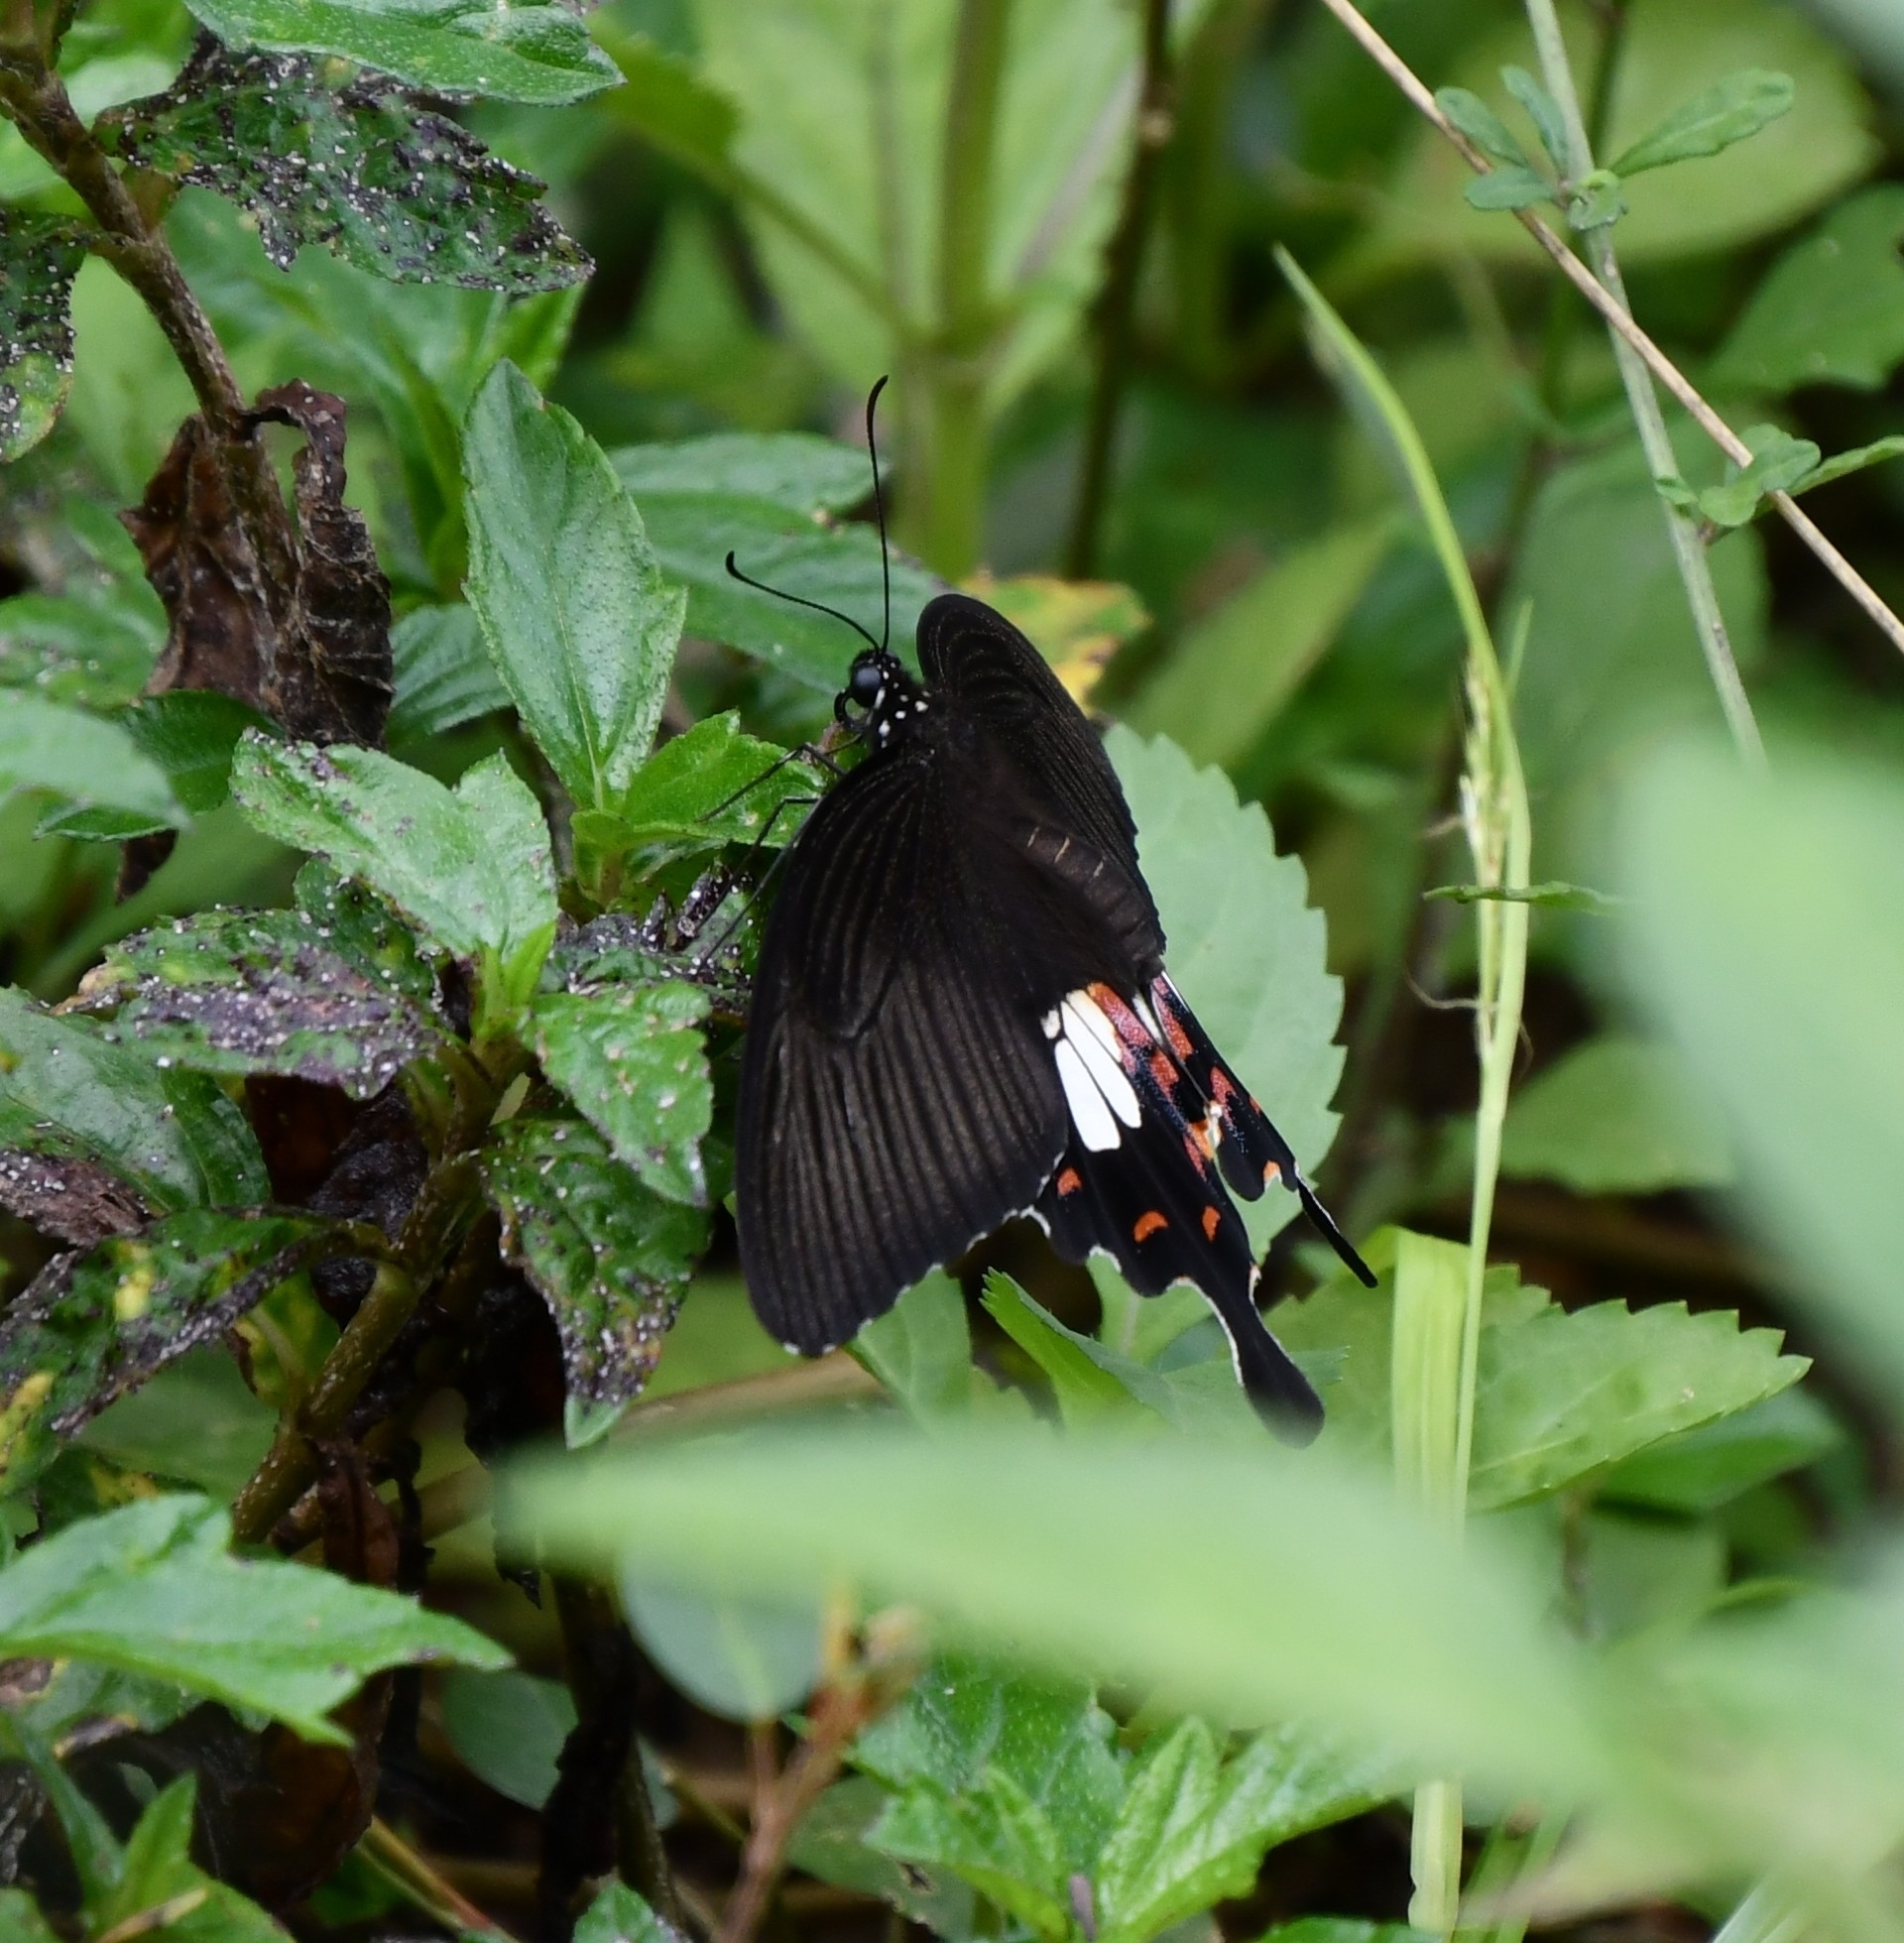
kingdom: Animalia
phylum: Arthropoda
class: Insecta
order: Lepidoptera
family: Papilionidae
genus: Papilio
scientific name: Papilio polytes
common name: Common mormon
